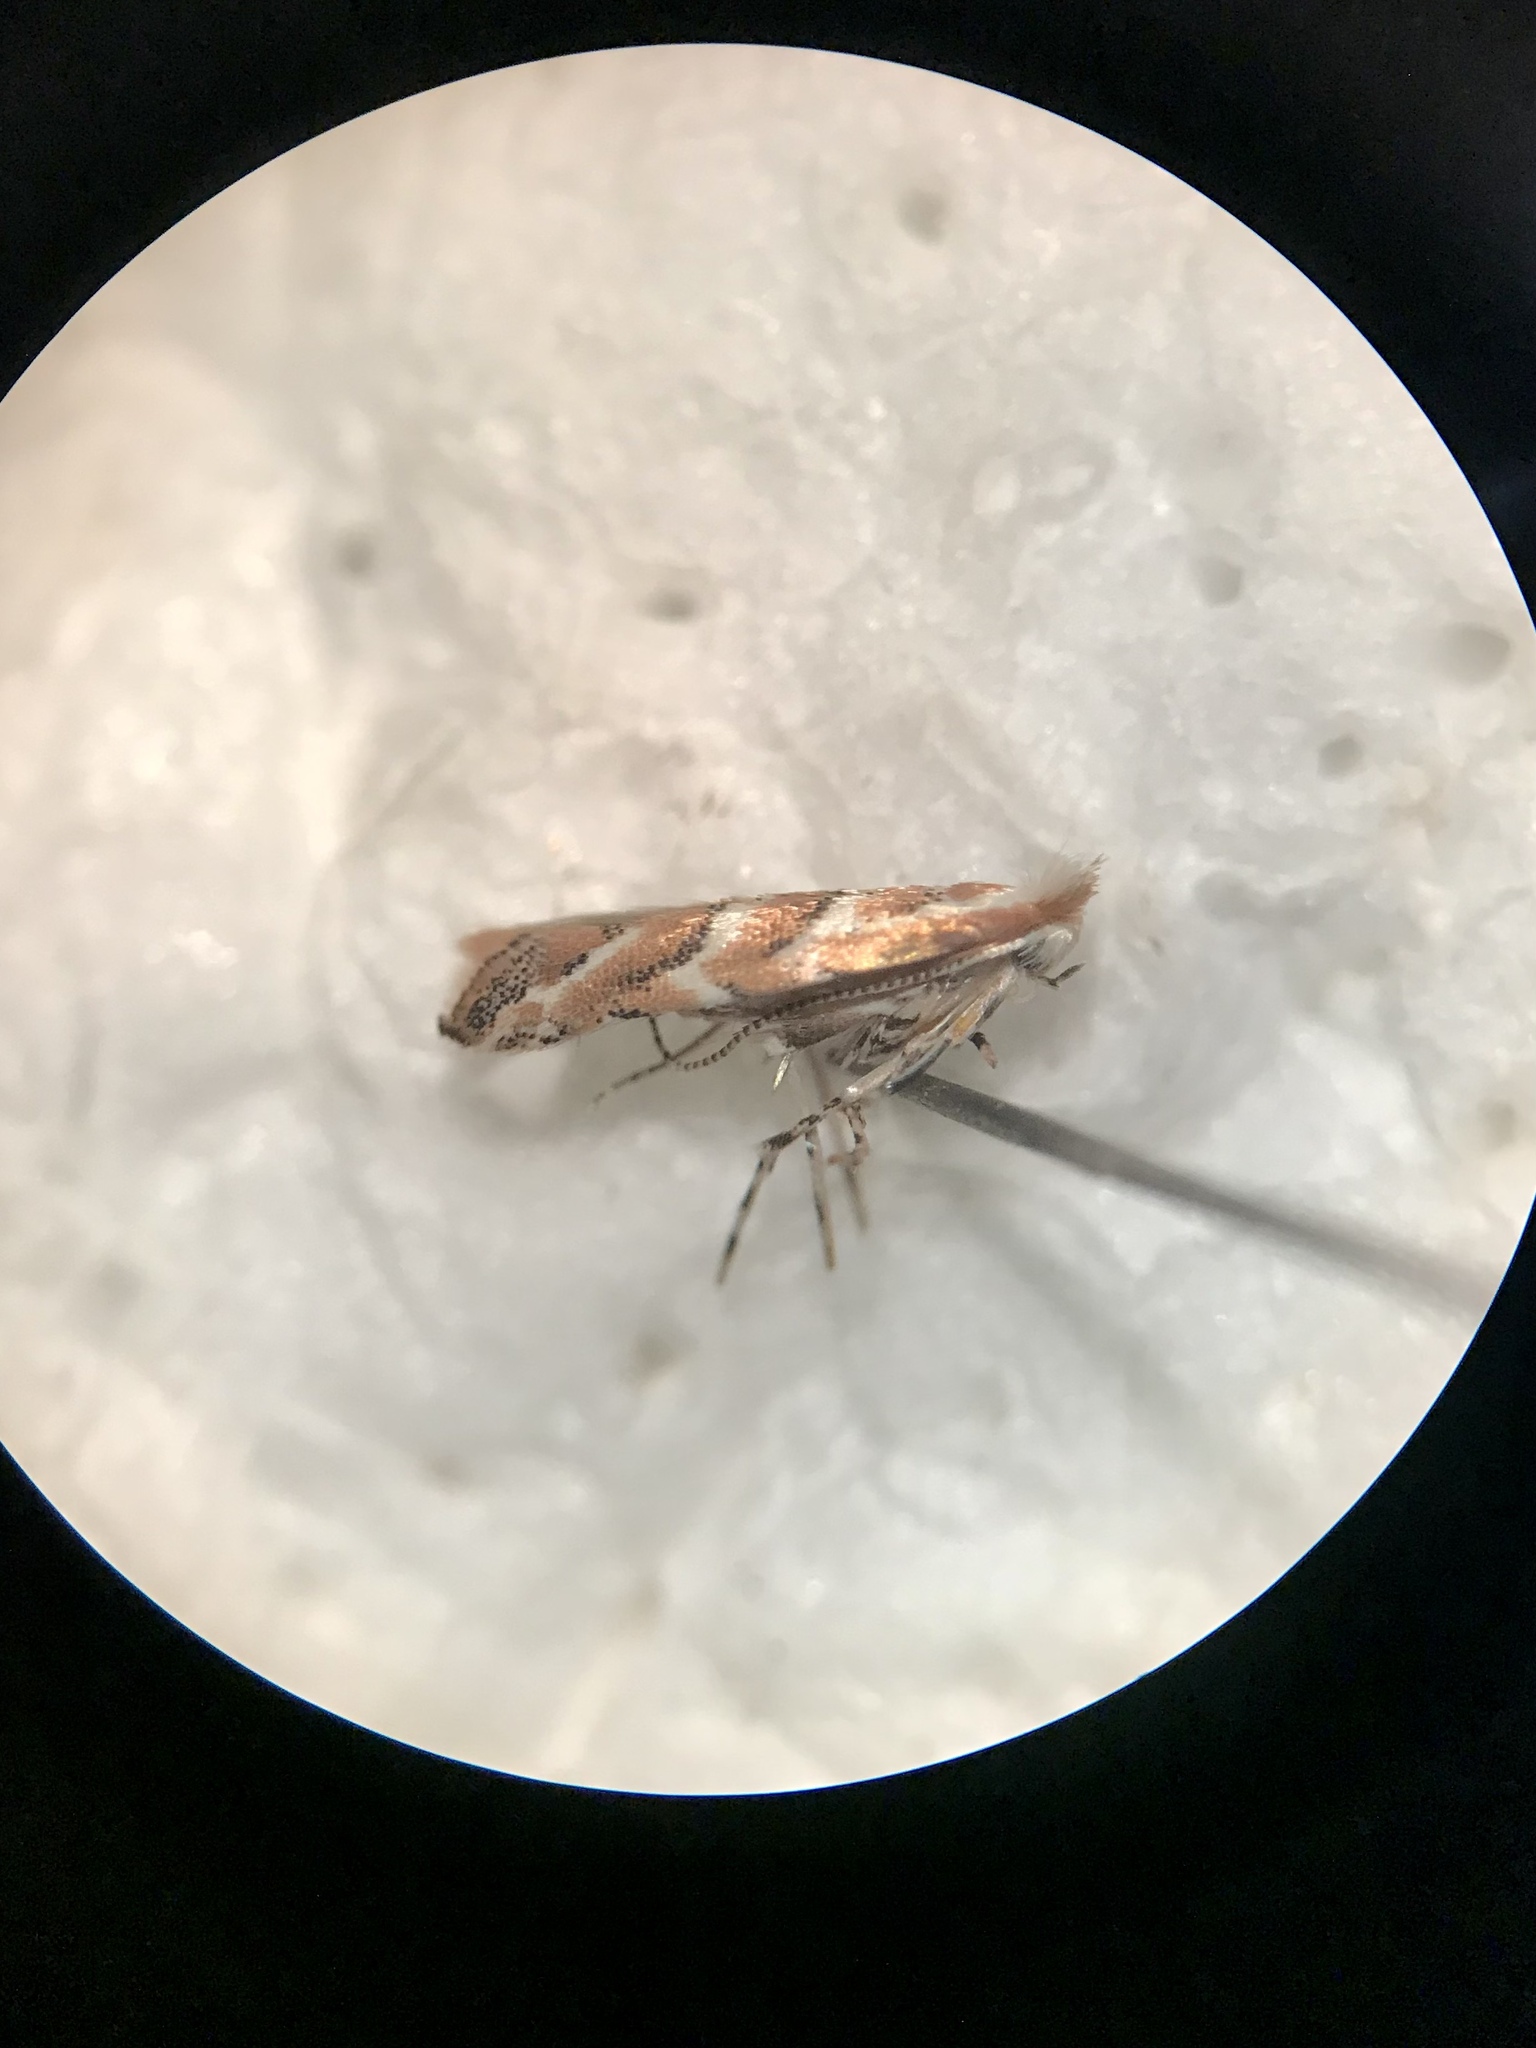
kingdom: Animalia
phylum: Arthropoda
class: Insecta
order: Lepidoptera
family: Gracillariidae
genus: Cameraria
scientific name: Cameraria macrocarpella
